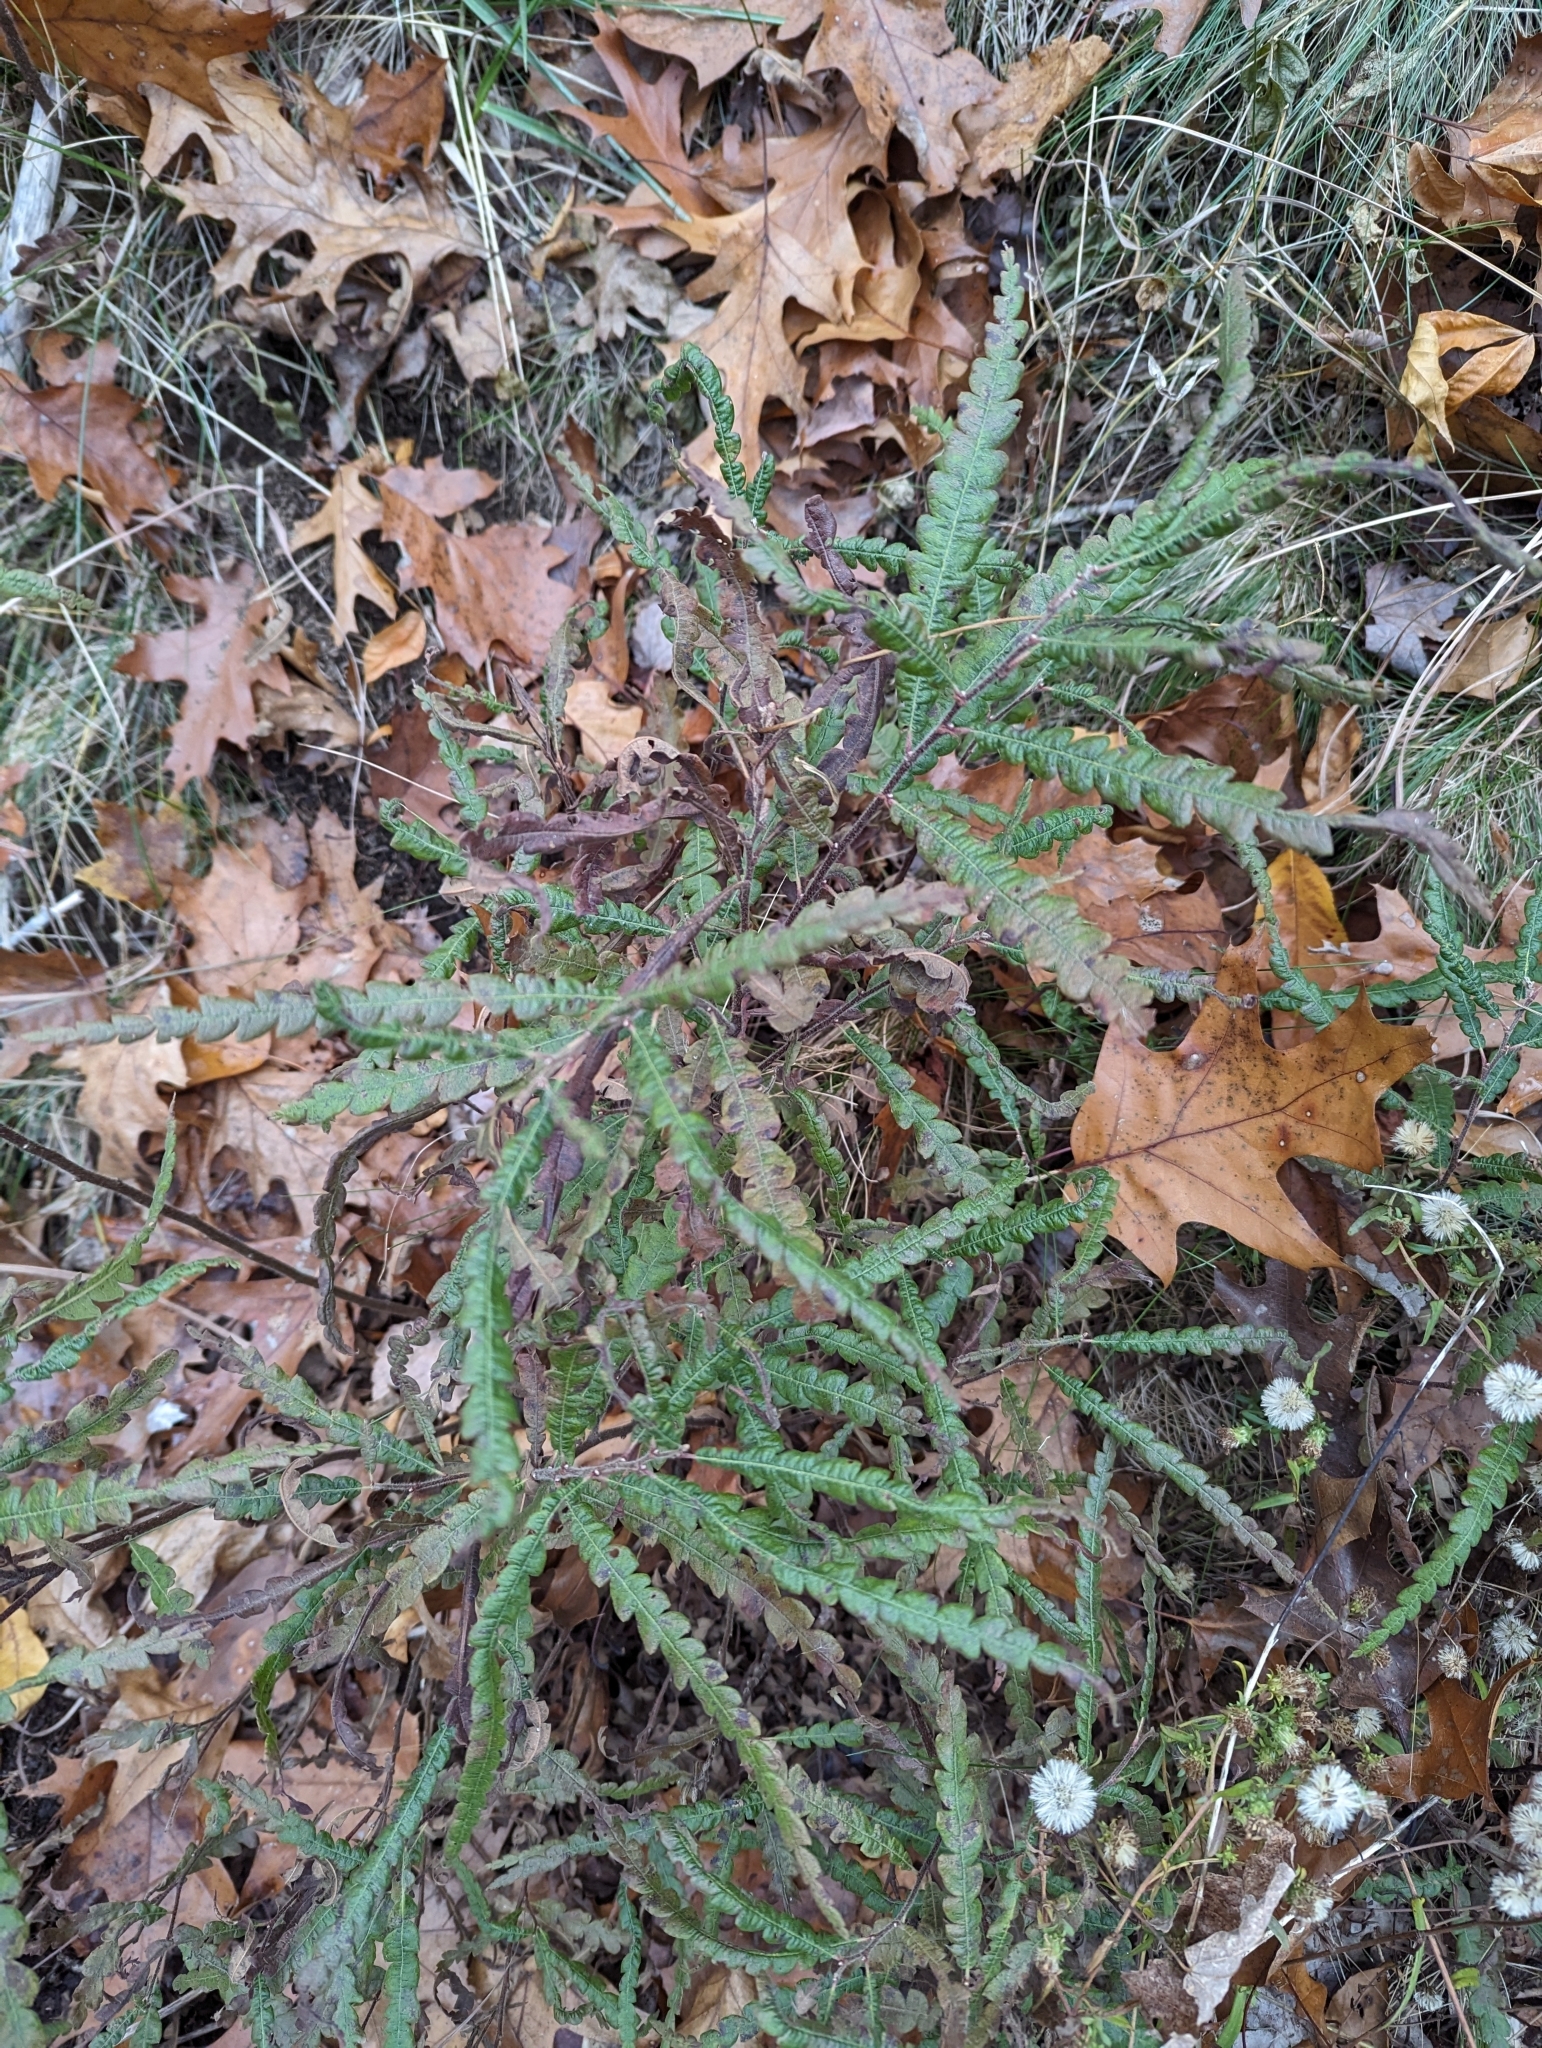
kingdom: Plantae
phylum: Tracheophyta
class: Magnoliopsida
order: Fagales
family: Myricaceae
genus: Comptonia
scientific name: Comptonia peregrina
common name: Sweet-fern
